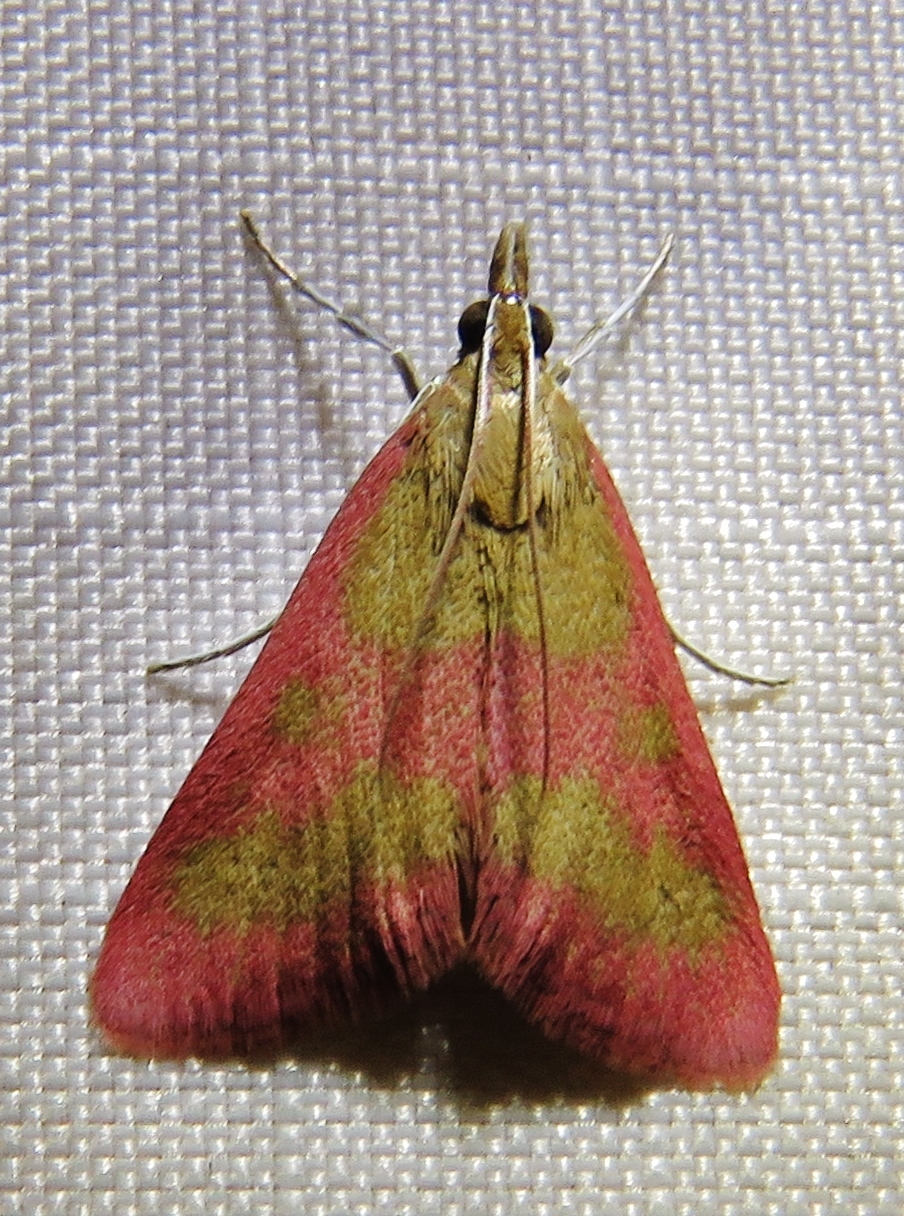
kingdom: Animalia
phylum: Arthropoda
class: Insecta
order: Lepidoptera
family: Crambidae
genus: Pyrausta
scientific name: Pyrausta laticlavia
